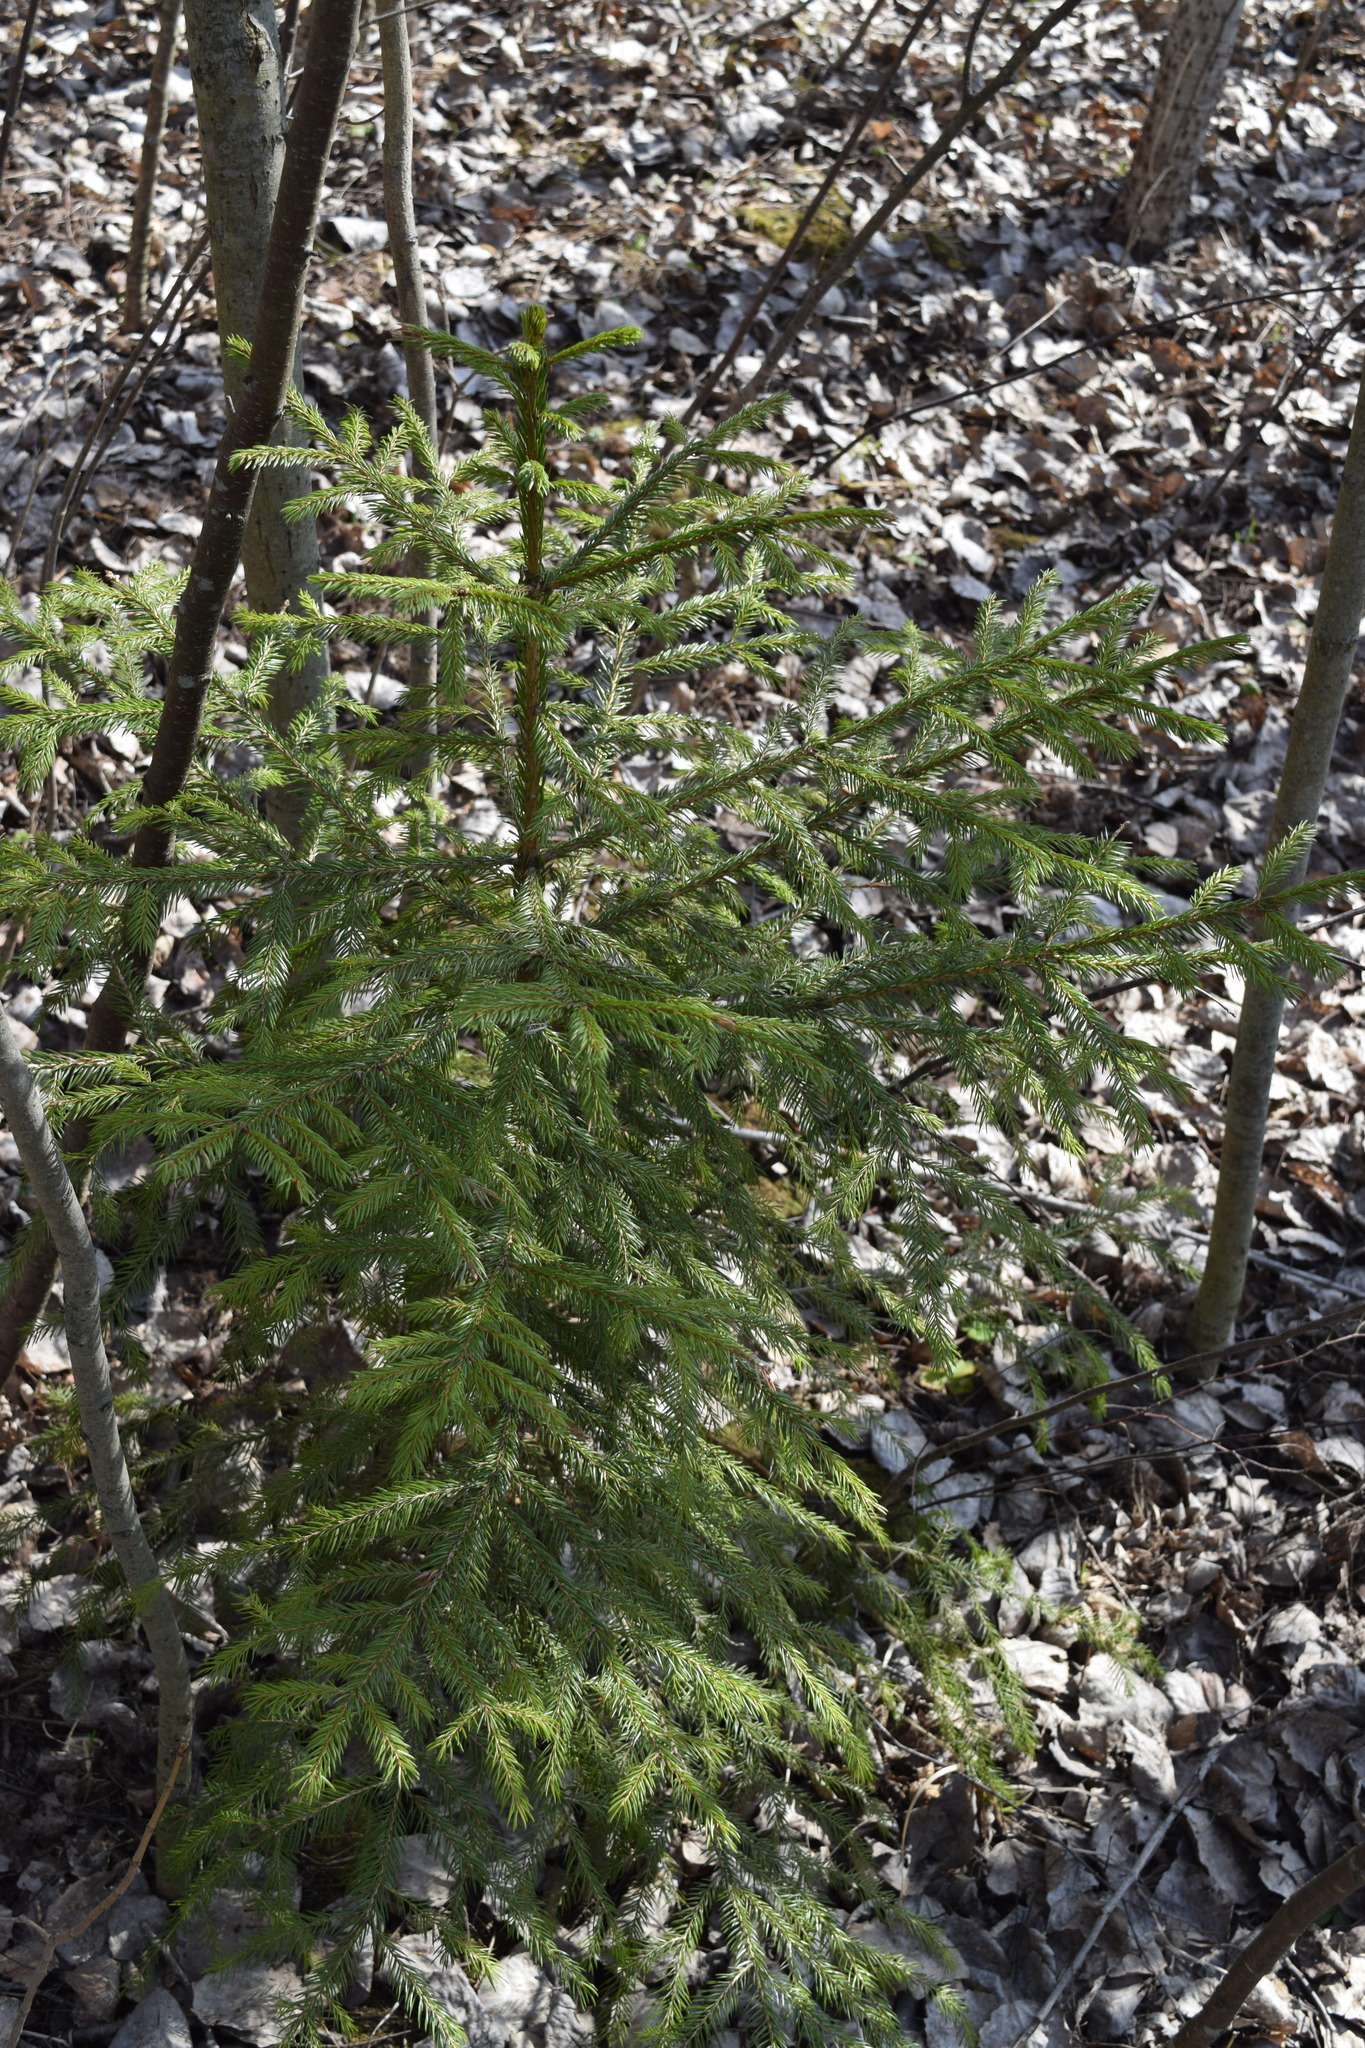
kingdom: Plantae
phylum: Tracheophyta
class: Pinopsida
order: Pinales
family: Pinaceae
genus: Picea
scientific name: Picea abies
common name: Norway spruce
